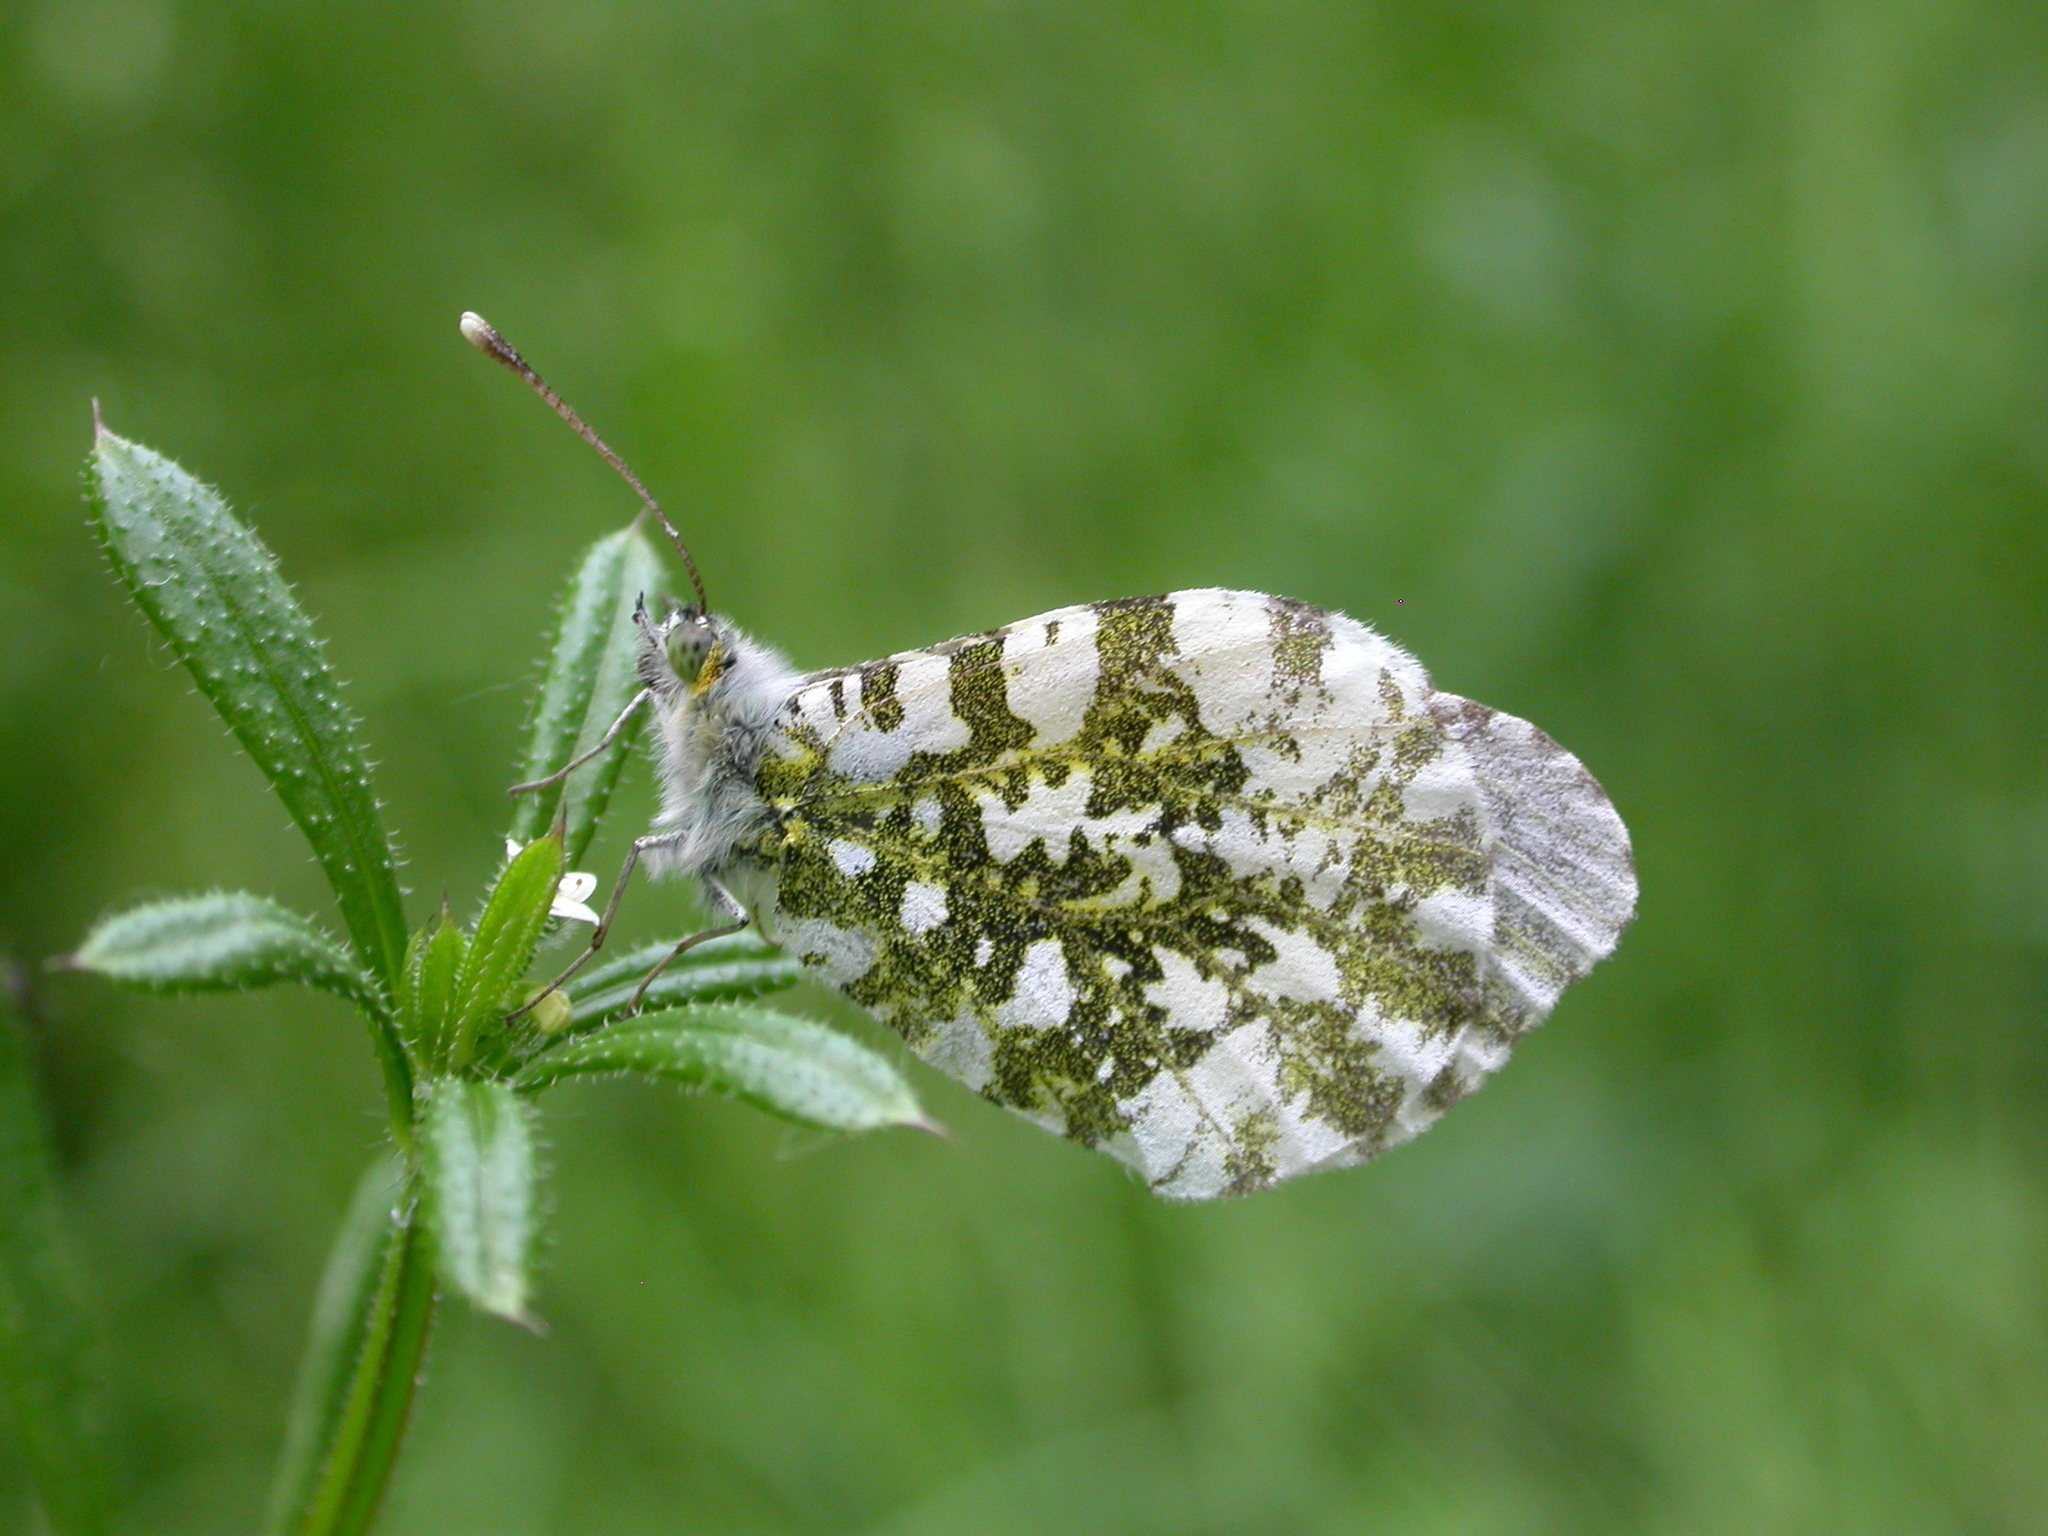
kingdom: Animalia
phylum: Arthropoda
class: Insecta
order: Lepidoptera
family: Pieridae
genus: Anthocharis
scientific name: Anthocharis cardamines
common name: Orange-tip
